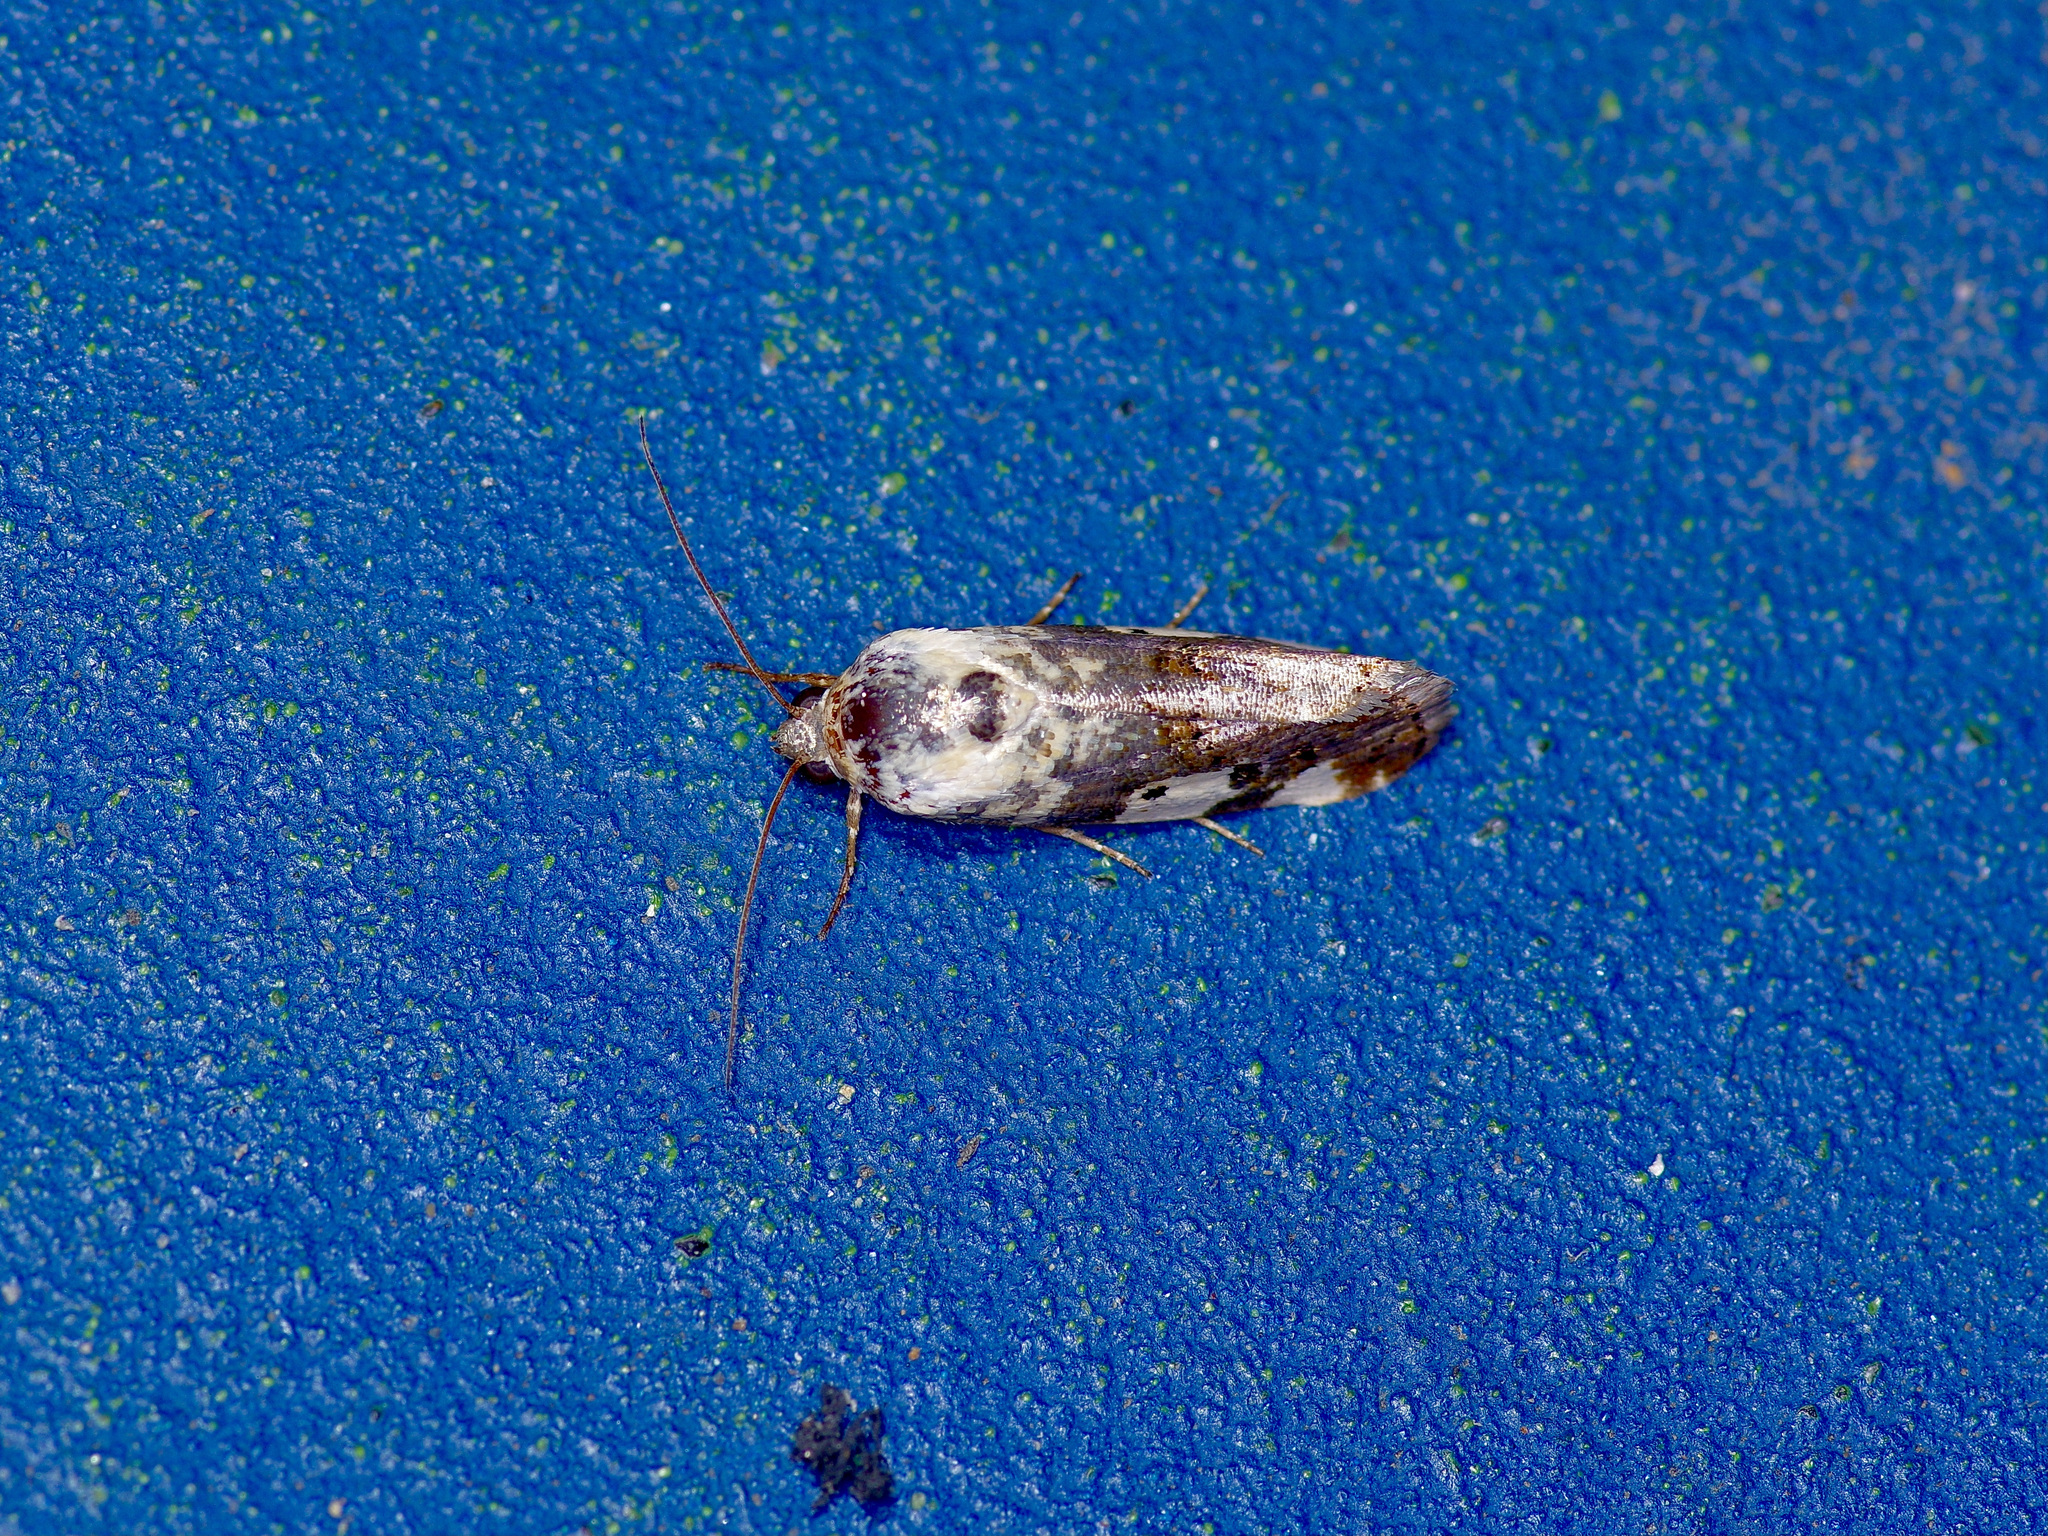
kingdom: Animalia
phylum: Arthropoda
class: Insecta
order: Lepidoptera
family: Noctuidae
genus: Acontia
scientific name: Acontia aprica
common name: Nun
